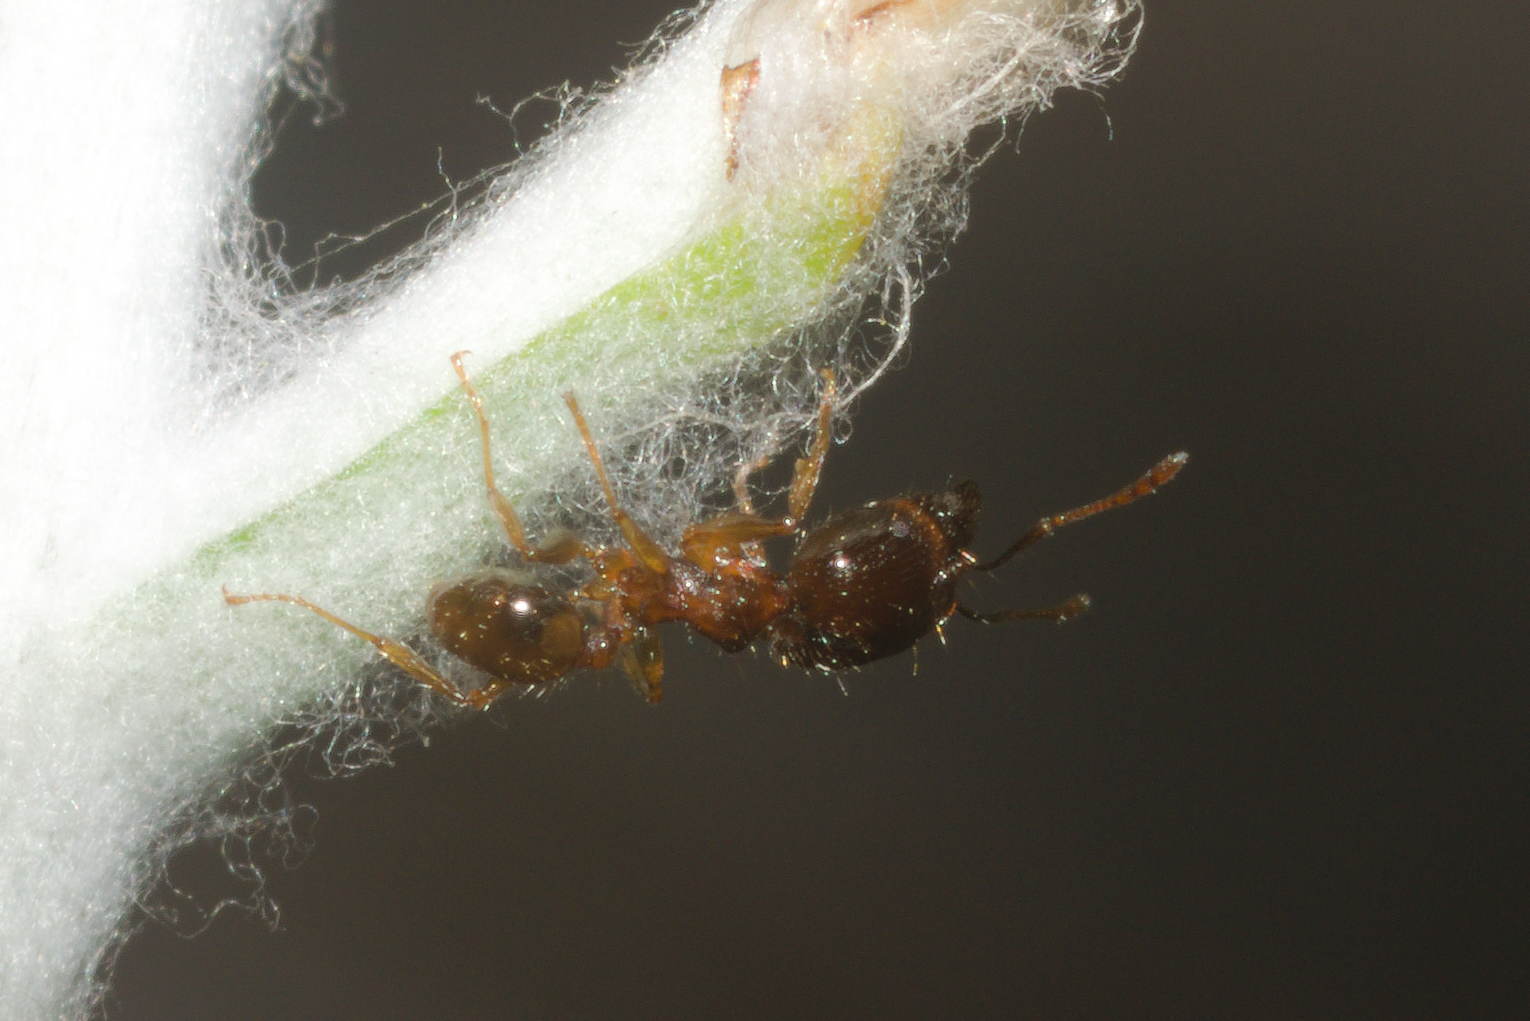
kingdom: Animalia
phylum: Arthropoda
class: Insecta
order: Hymenoptera
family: Formicidae
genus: Pheidole
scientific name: Pheidole megacephala
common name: Bigheaded ant
